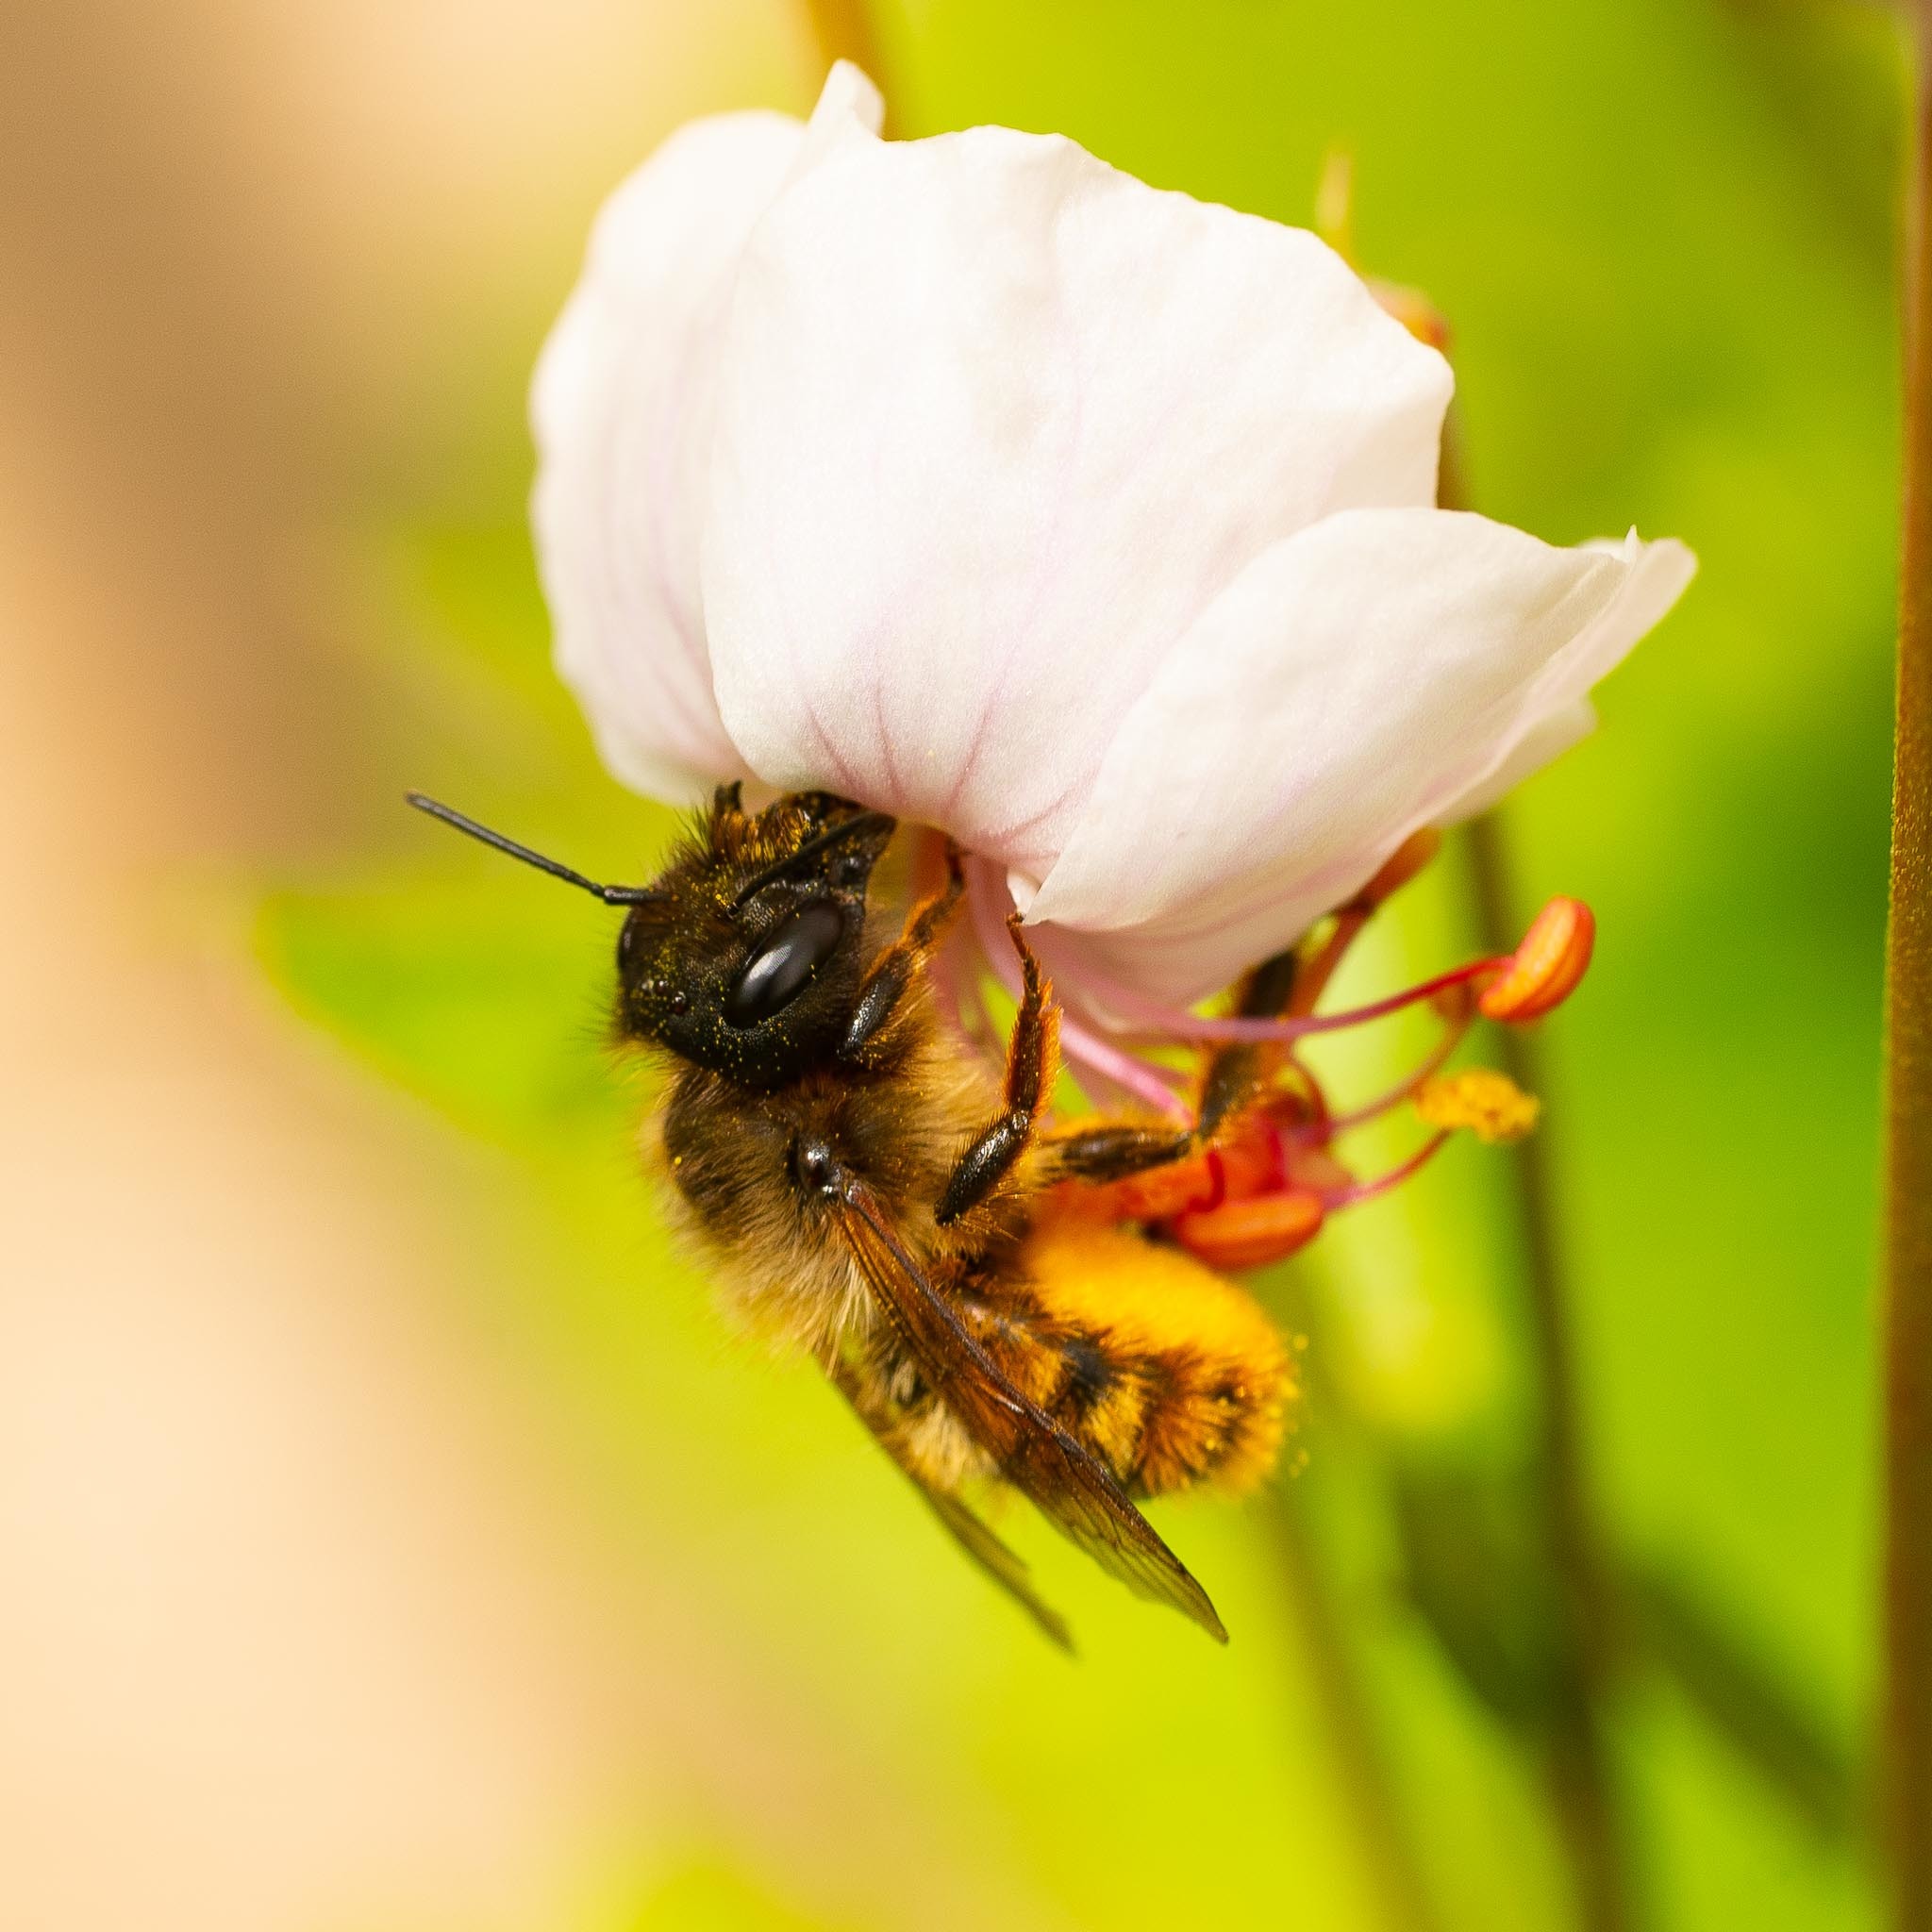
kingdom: Animalia
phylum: Arthropoda
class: Insecta
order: Hymenoptera
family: Megachilidae
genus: Osmia
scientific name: Osmia bicornis
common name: Red mason bee
